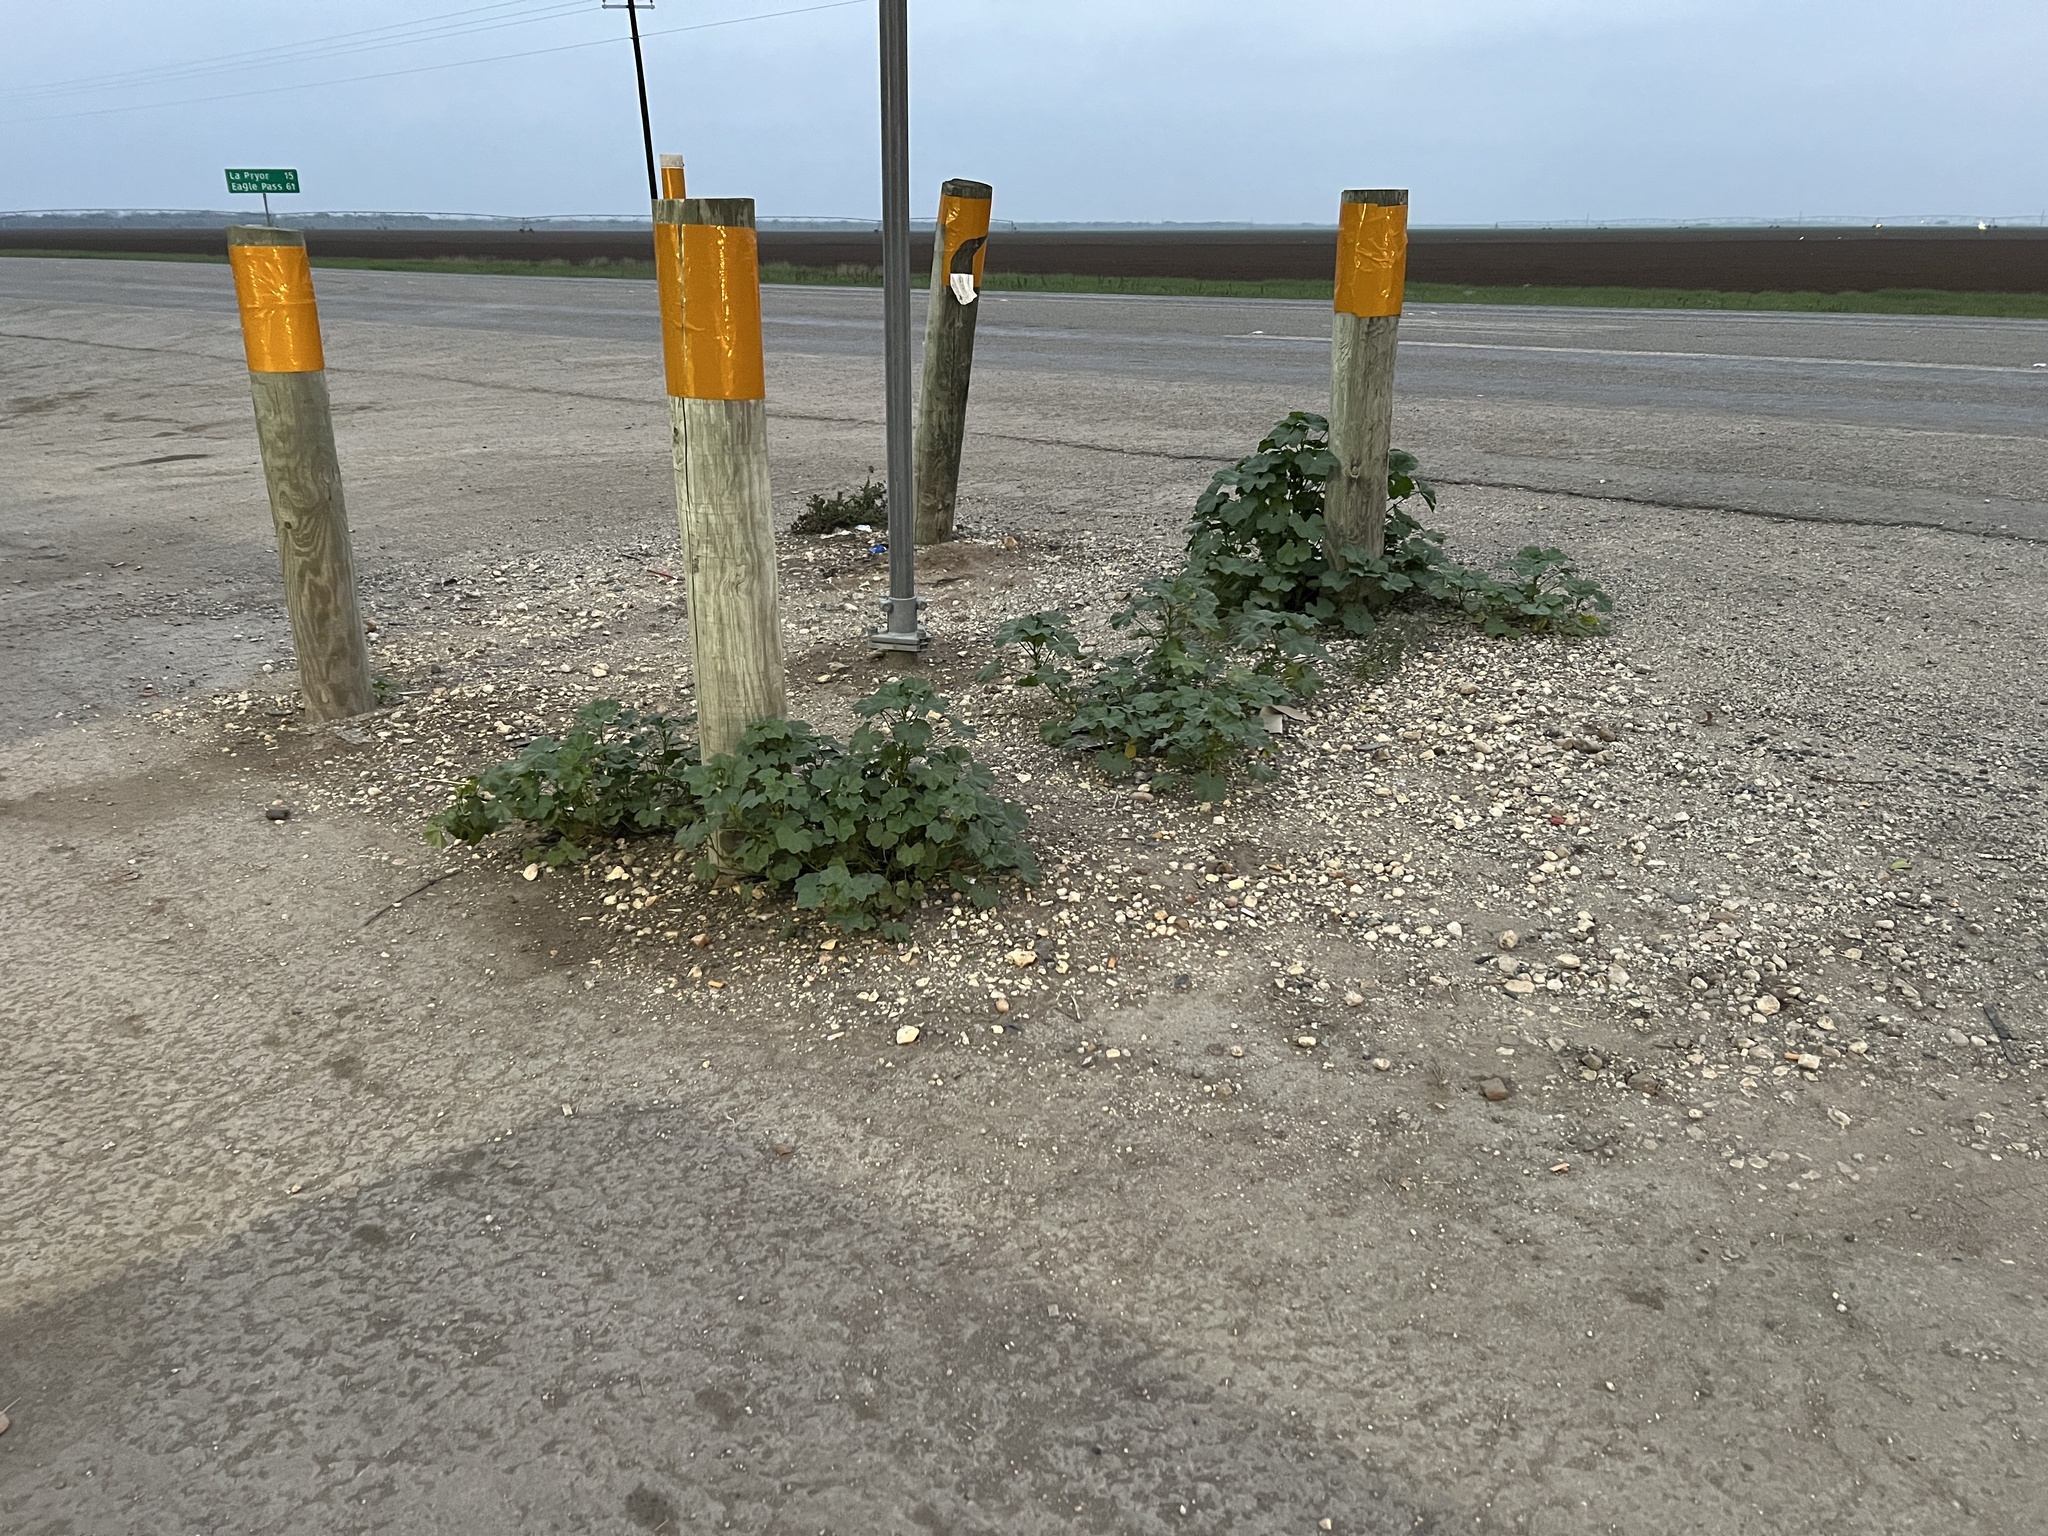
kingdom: Plantae
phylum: Tracheophyta
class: Magnoliopsida
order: Malvales
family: Malvaceae
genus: Malva
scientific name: Malva parviflora
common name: Least mallow
